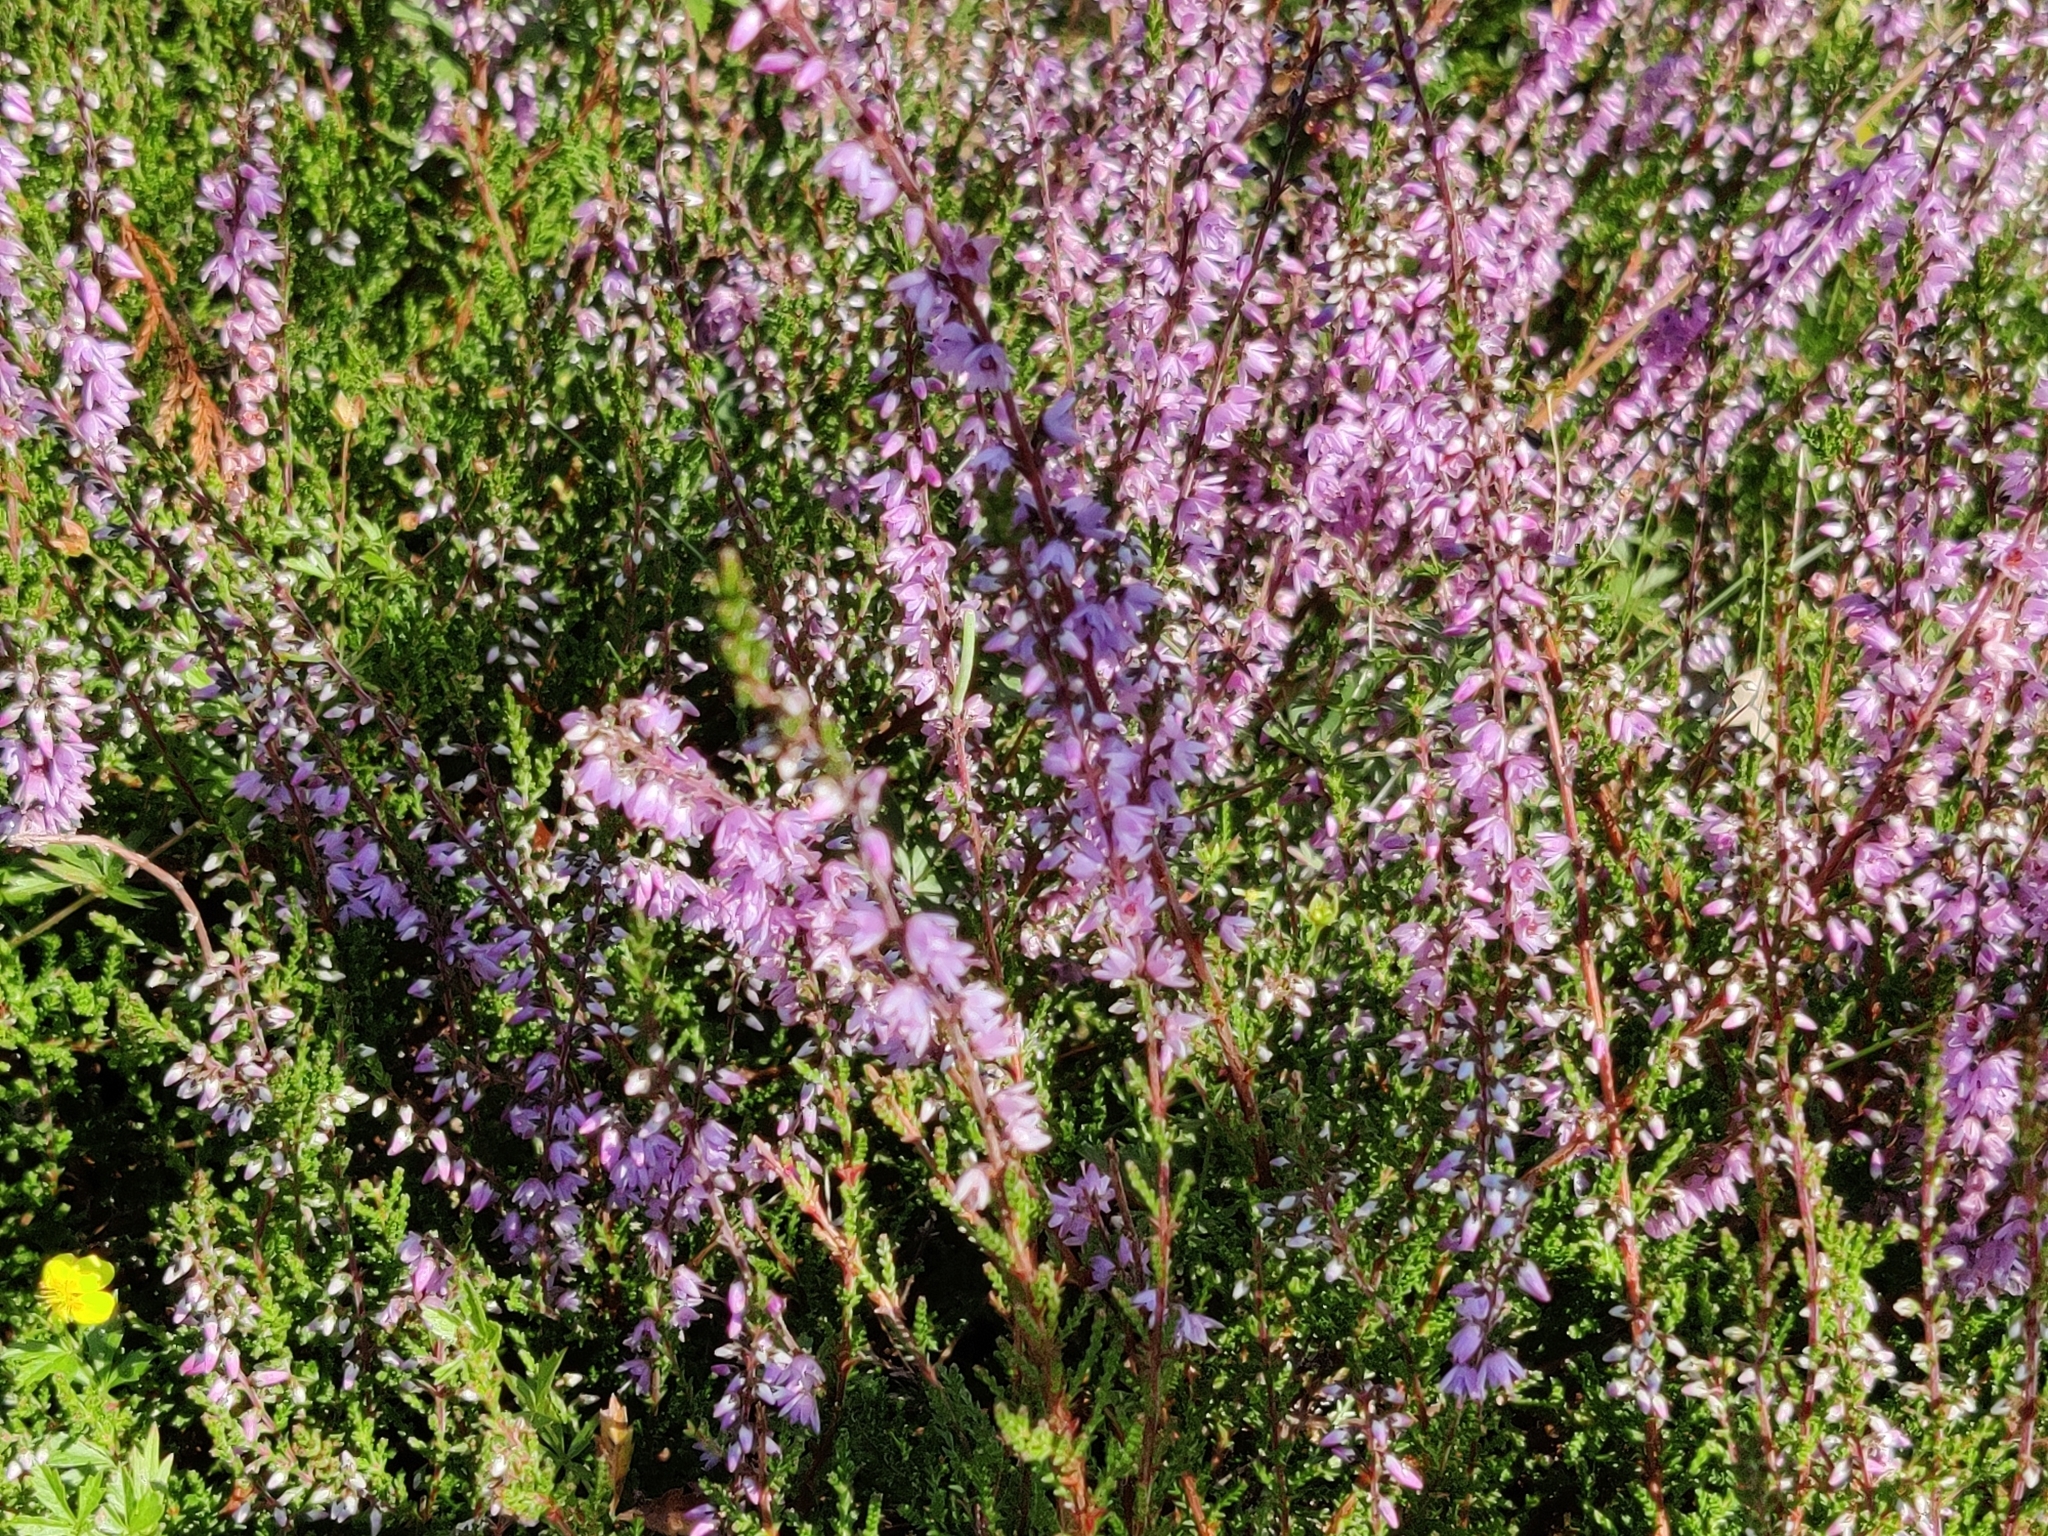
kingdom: Plantae
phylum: Tracheophyta
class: Magnoliopsida
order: Ericales
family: Ericaceae
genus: Calluna
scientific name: Calluna vulgaris
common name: Heather
